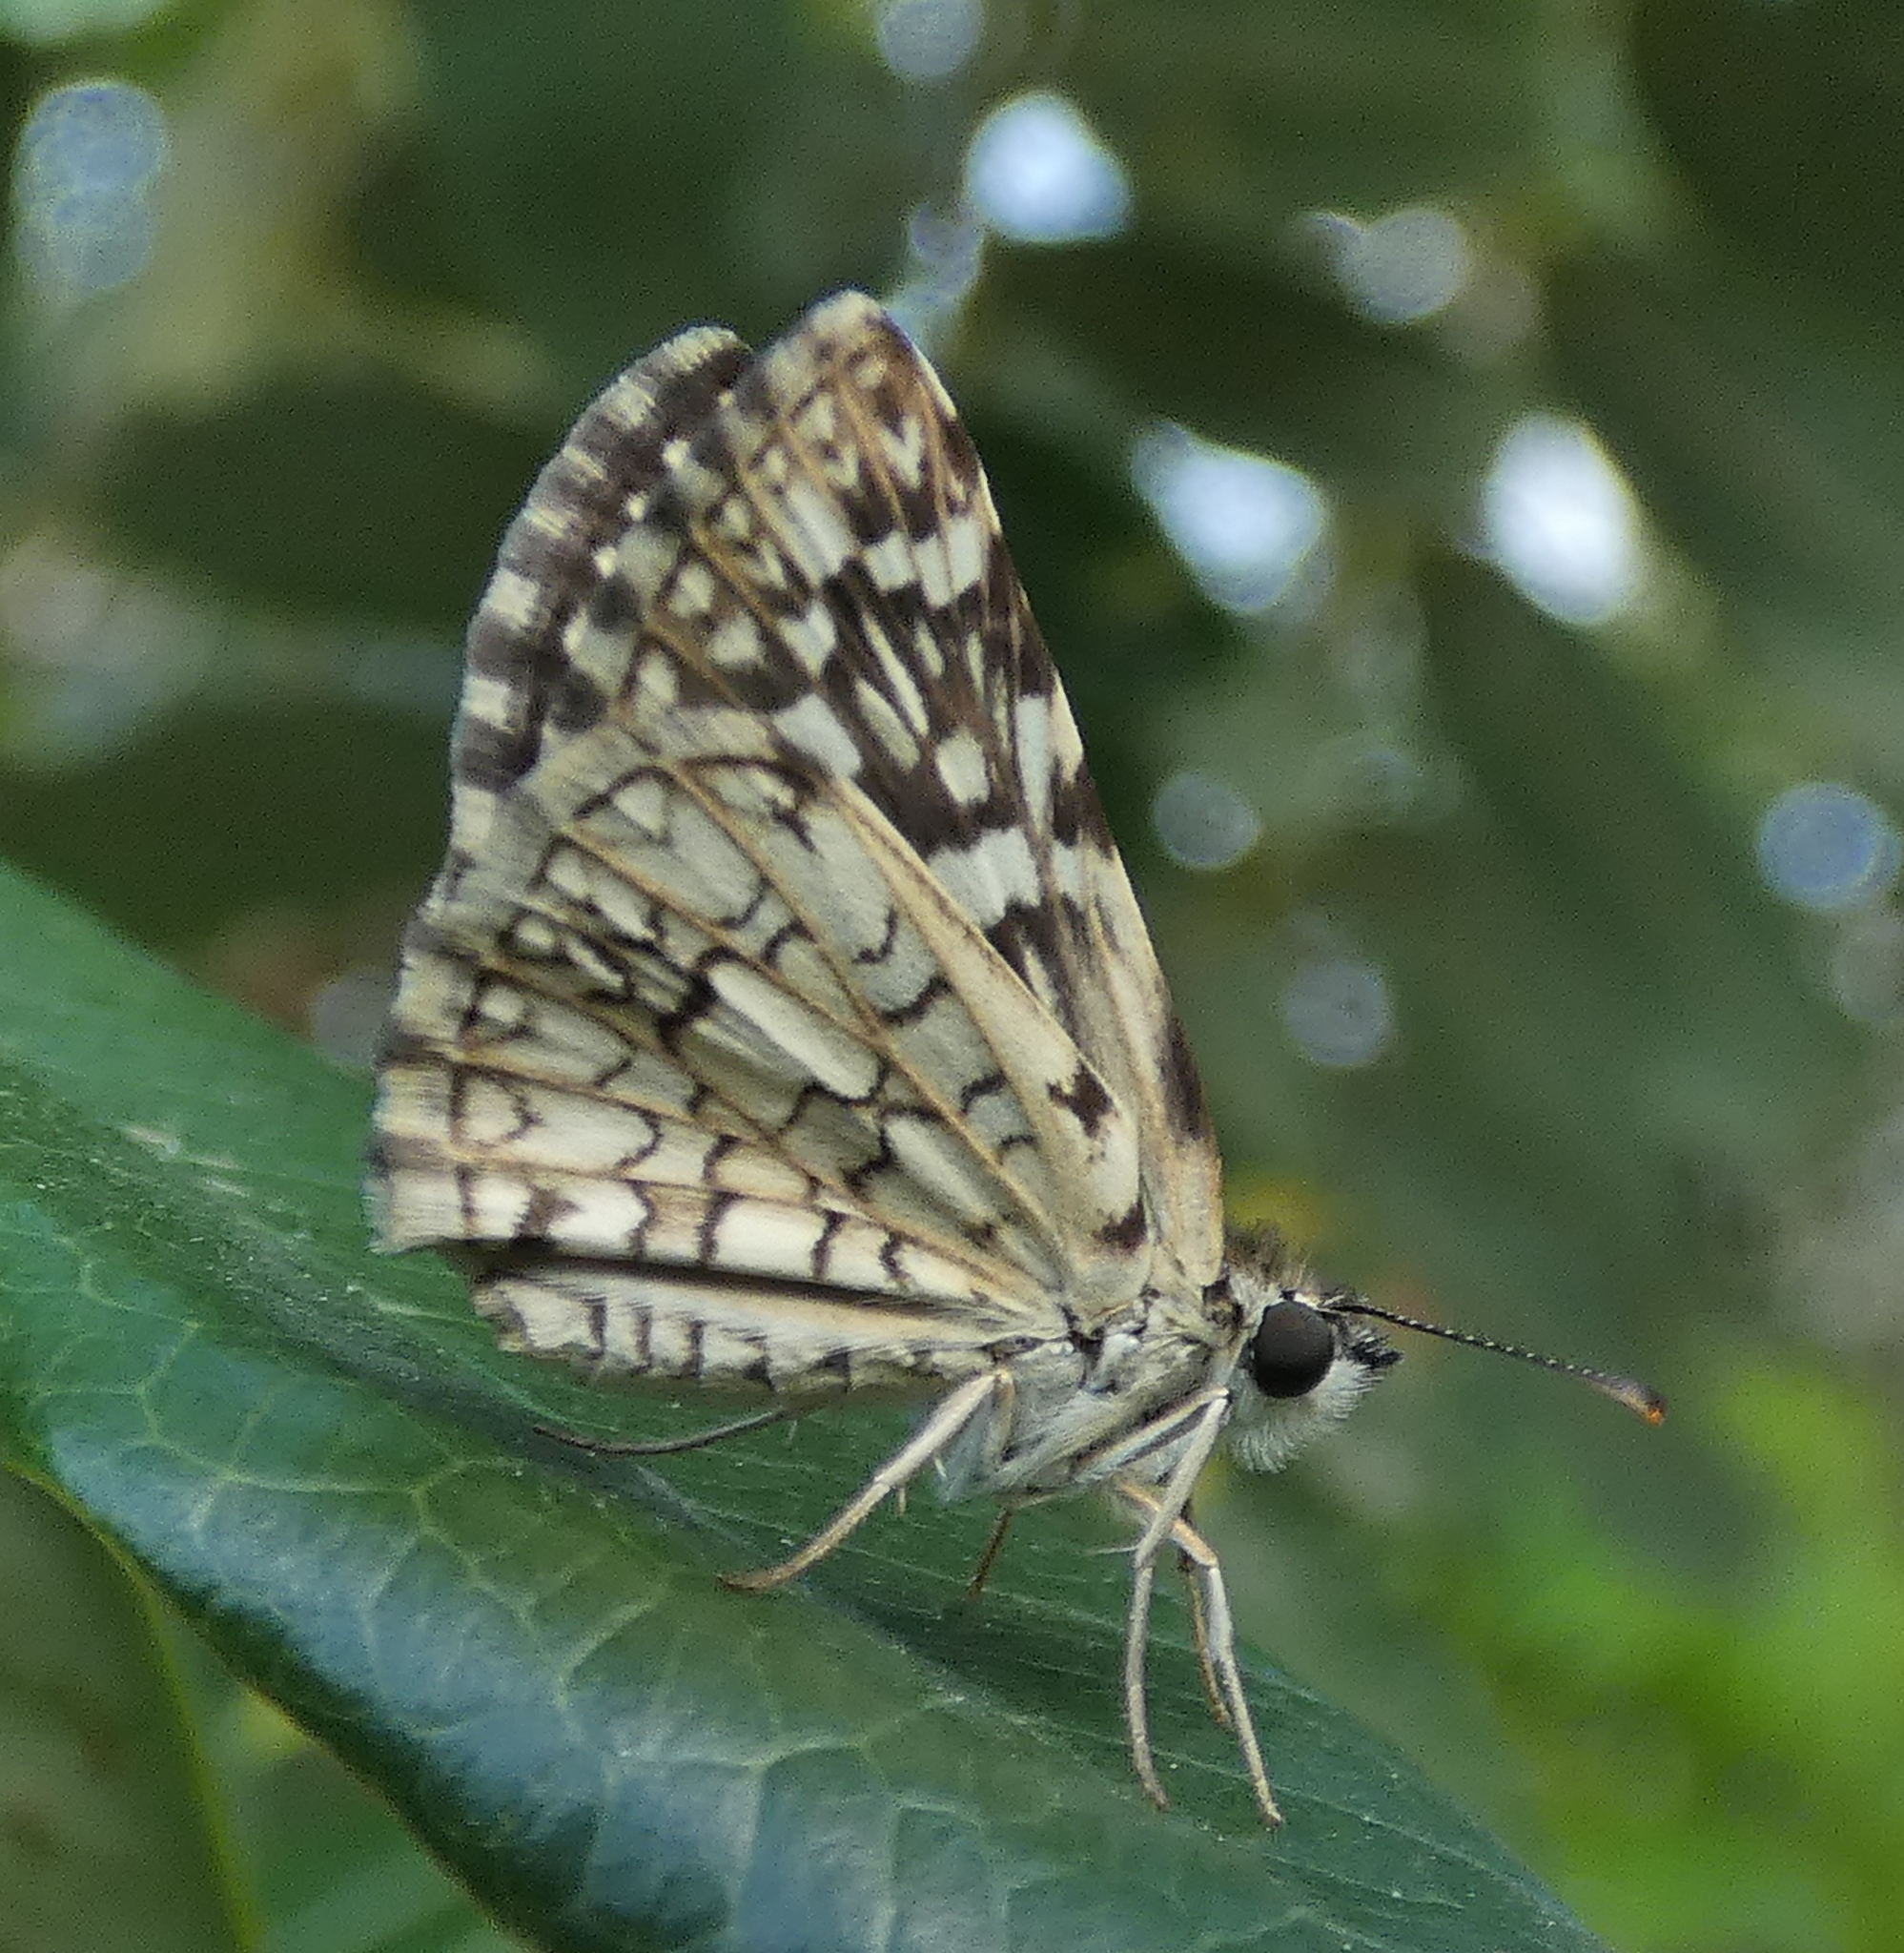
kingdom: Animalia
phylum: Arthropoda
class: Insecta
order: Lepidoptera
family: Hesperiidae
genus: Pyrgus
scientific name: Pyrgus oileus
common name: Tropical checkered-skipper
